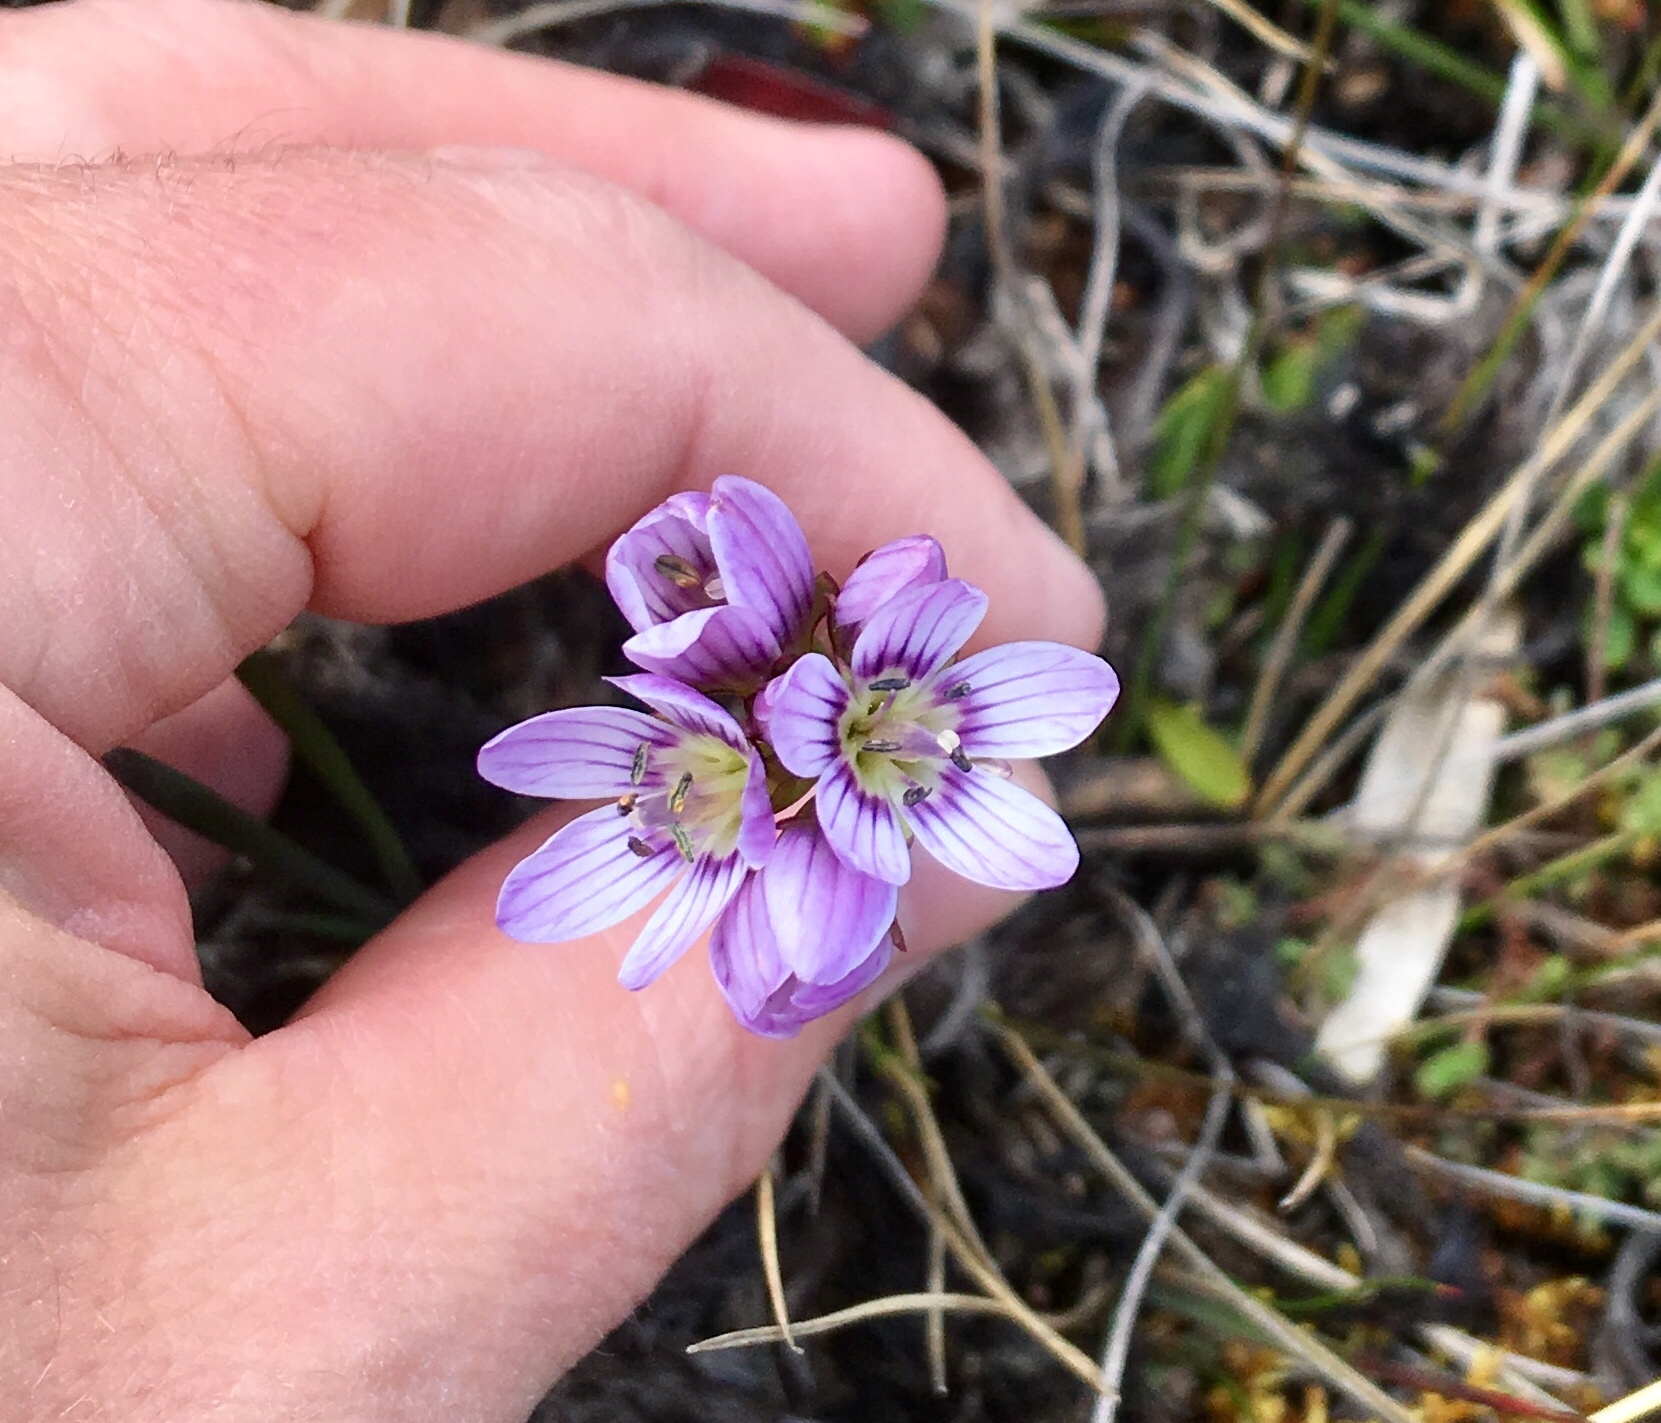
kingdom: Plantae
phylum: Tracheophyta
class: Magnoliopsida
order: Gentianales
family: Gentianaceae
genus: Gentianella
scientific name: Gentianella corymbosa
